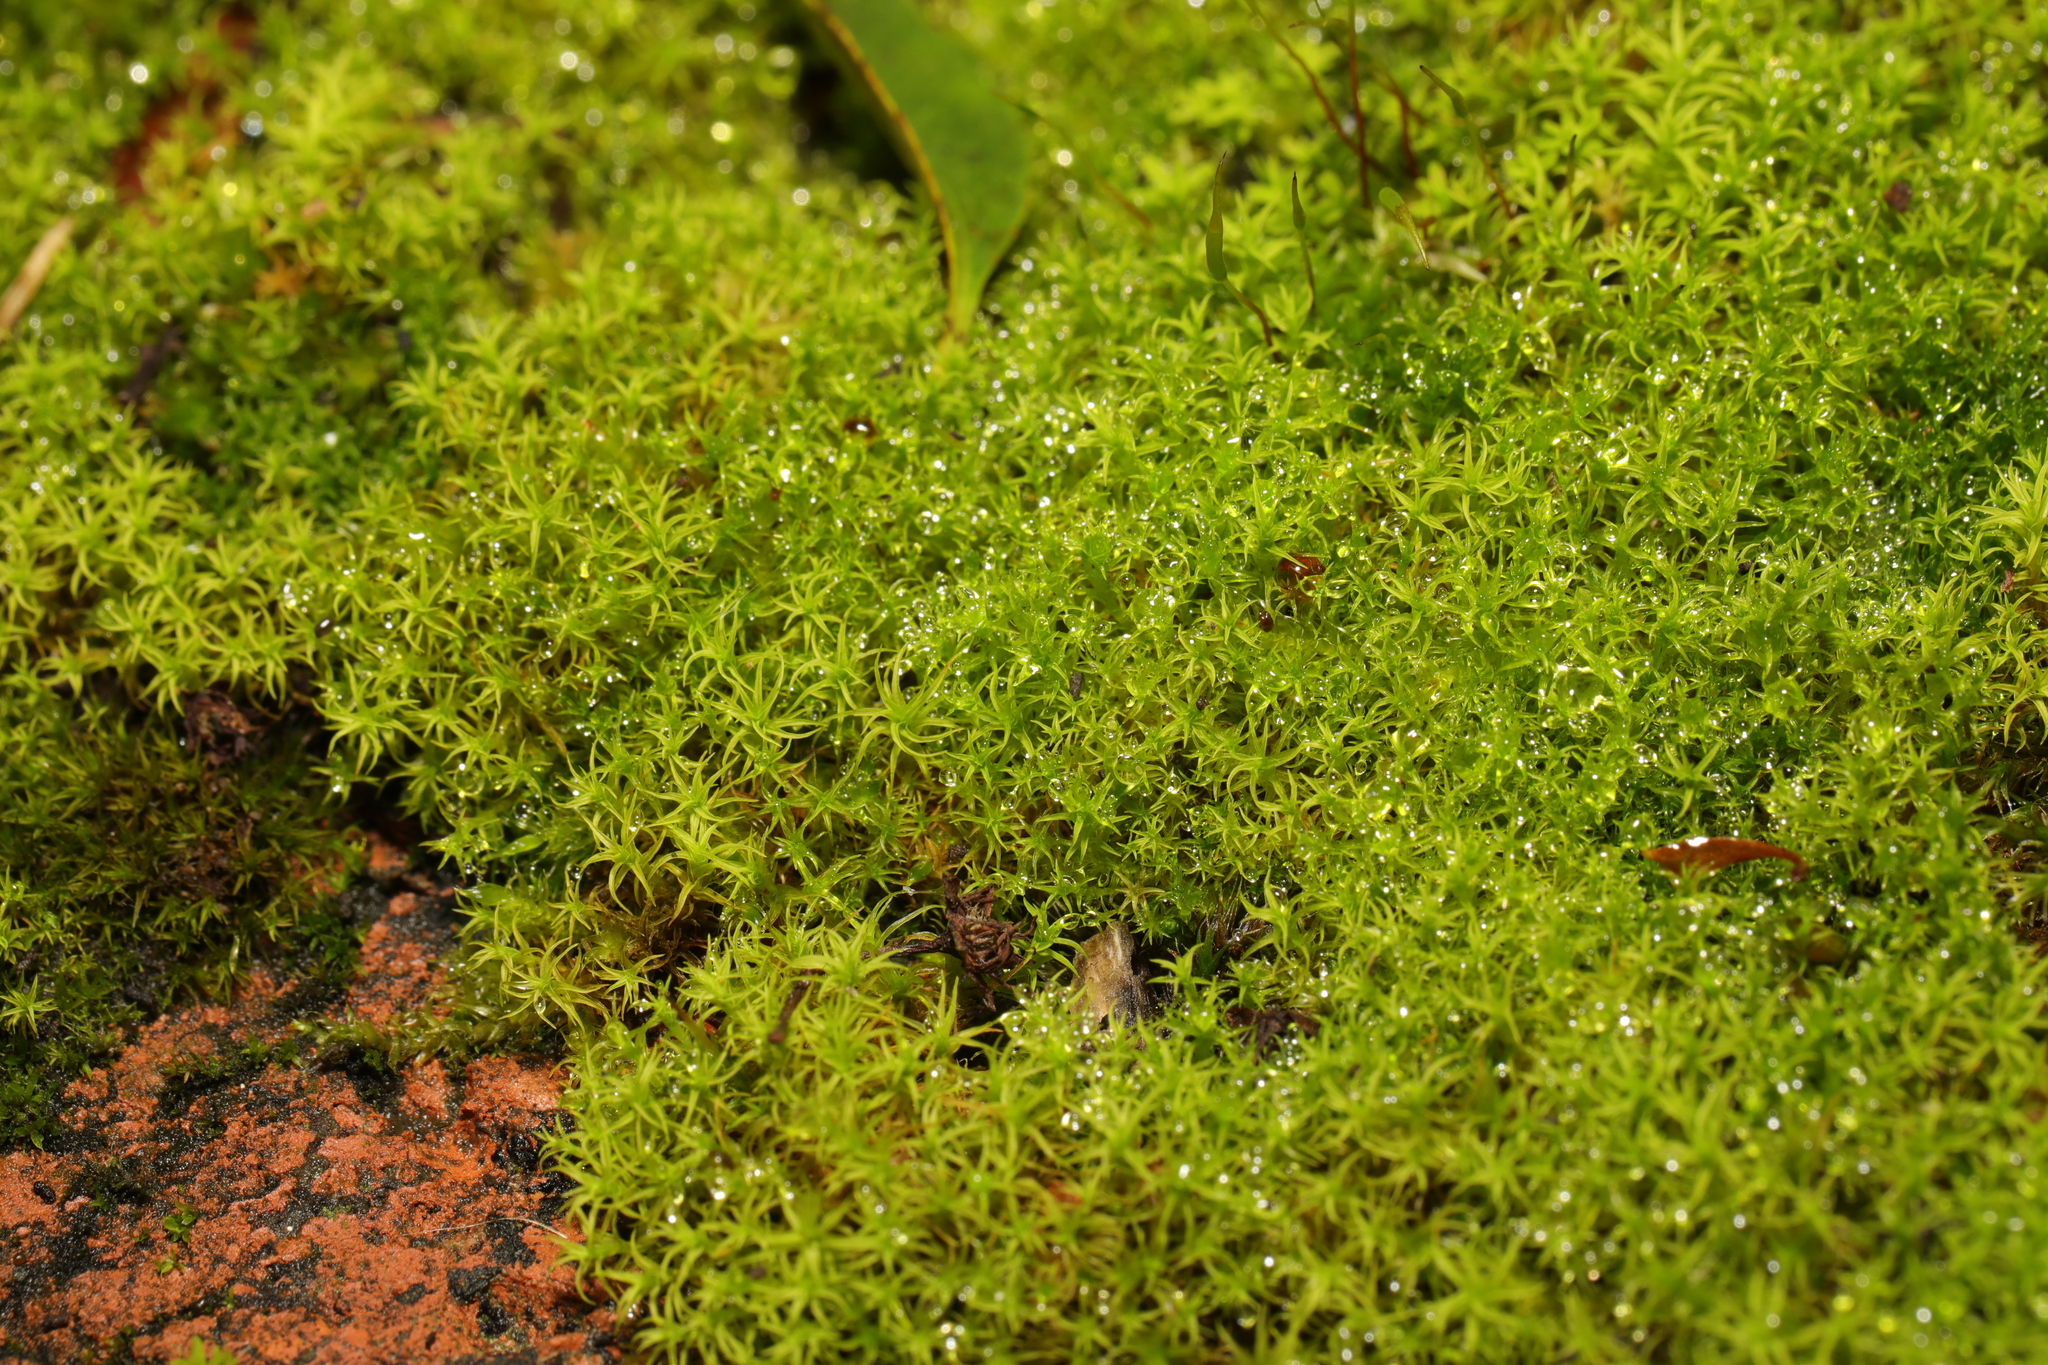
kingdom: Plantae
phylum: Bryophyta
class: Bryopsida
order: Pottiales
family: Pottiaceae
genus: Vinealobryum
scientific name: Vinealobryum insulanum
